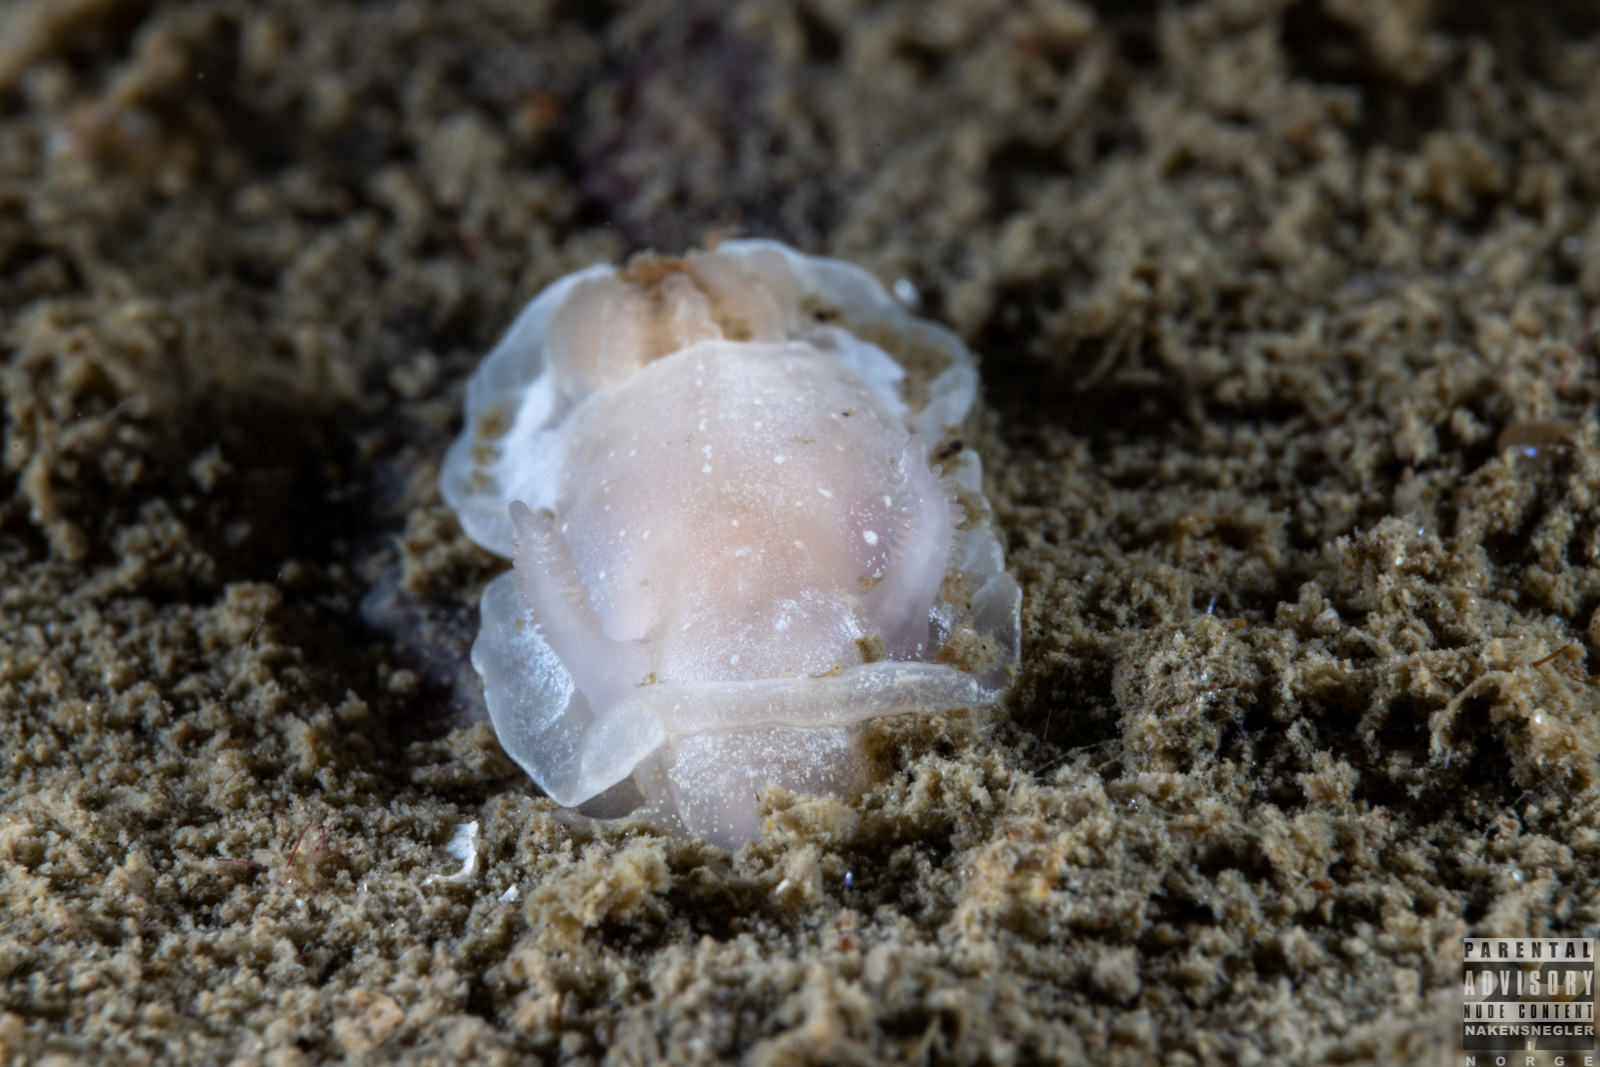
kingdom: Animalia
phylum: Mollusca
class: Gastropoda
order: Nudibranchia
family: Goniodorididae
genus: Okenia
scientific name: Okenia
